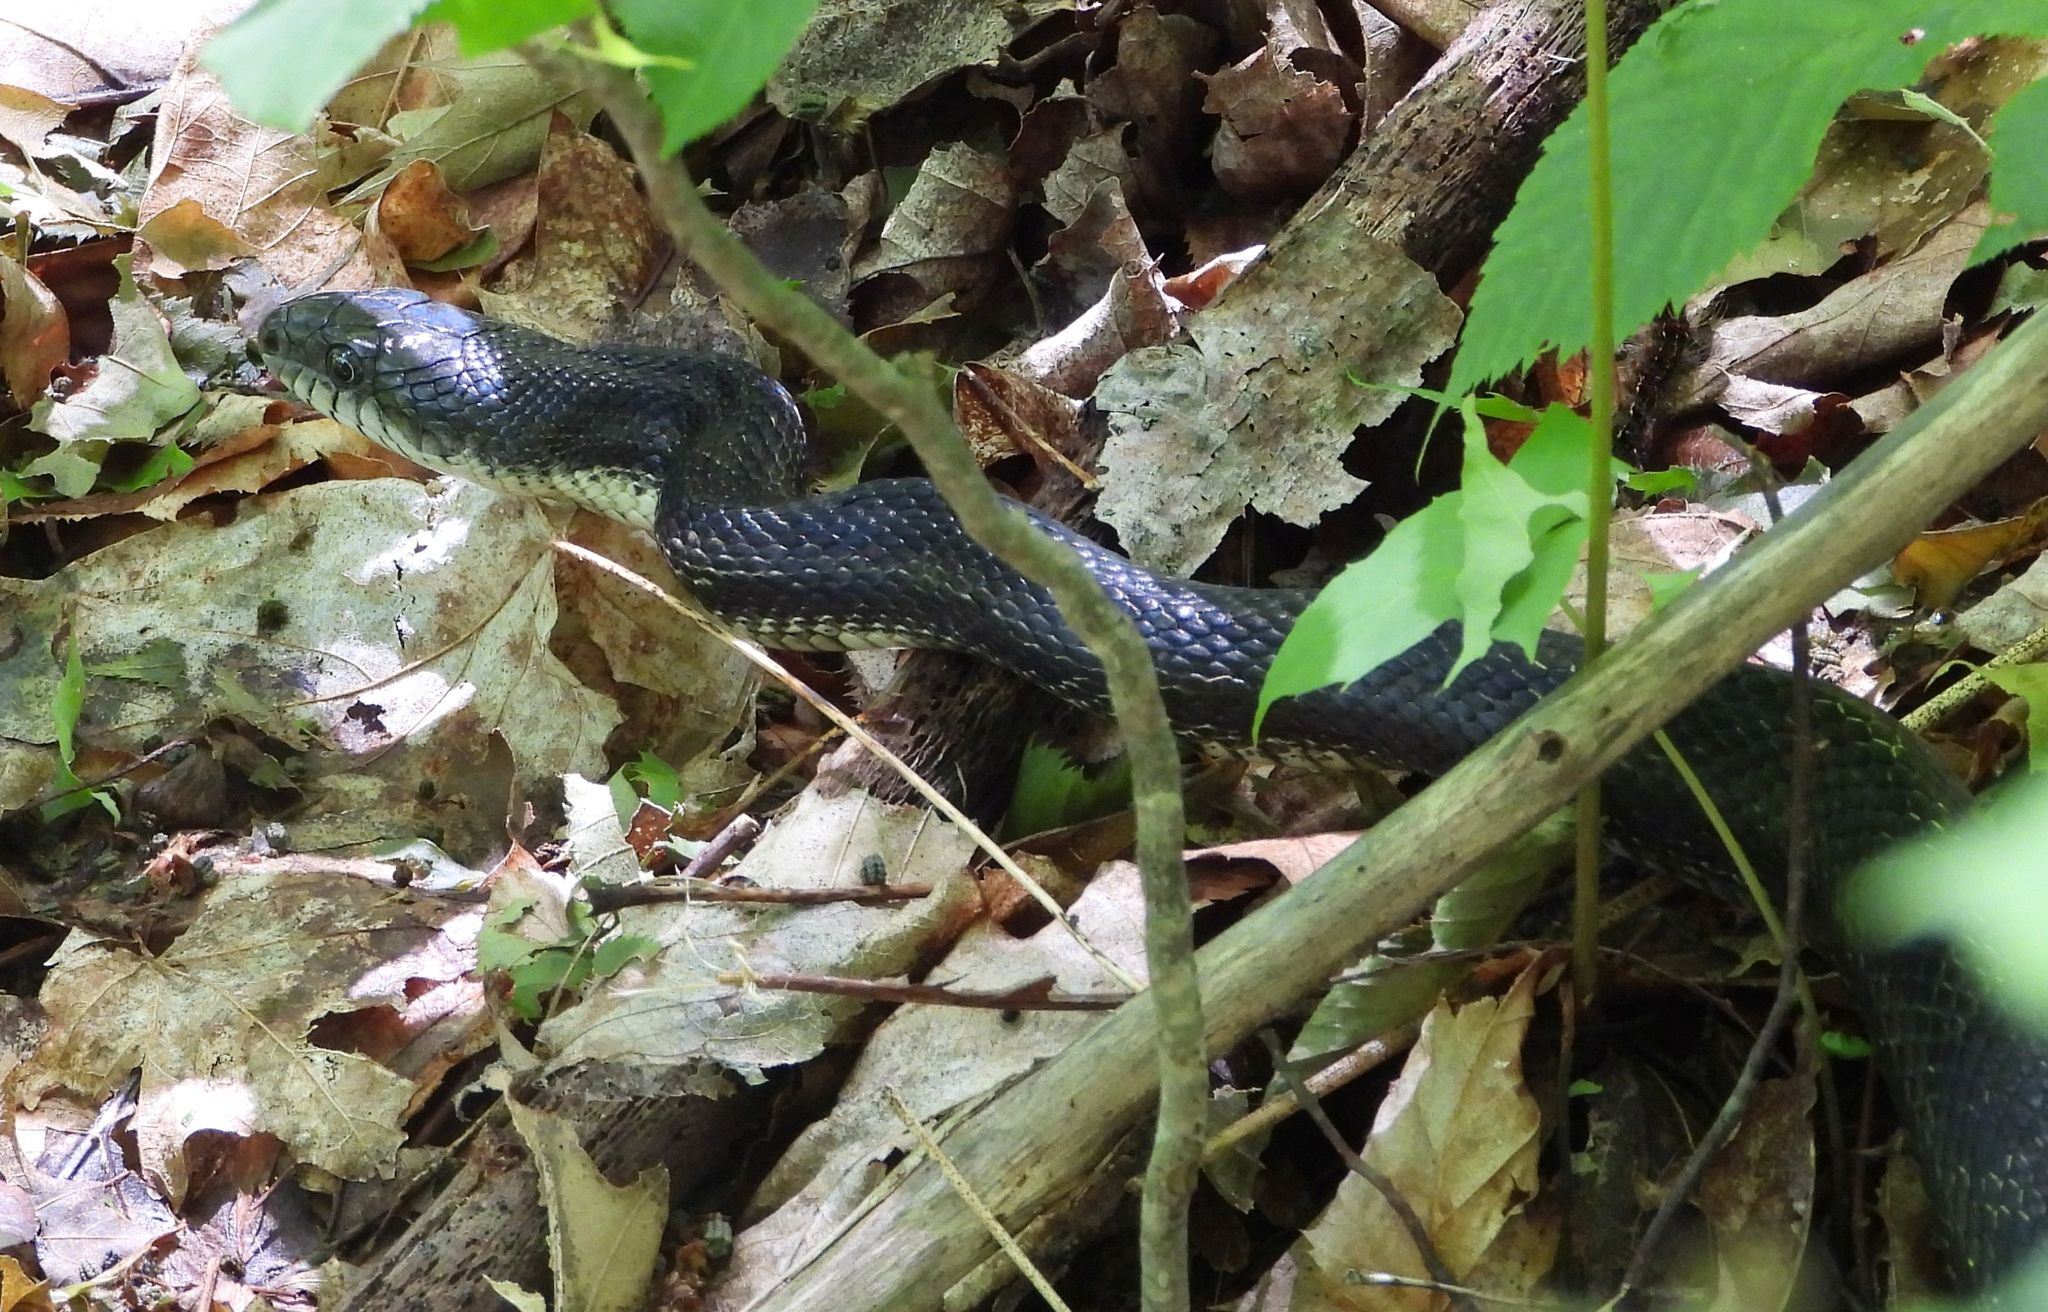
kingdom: Animalia
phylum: Chordata
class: Squamata
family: Colubridae
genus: Pantherophis
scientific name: Pantherophis spiloides
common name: Gray rat snake
